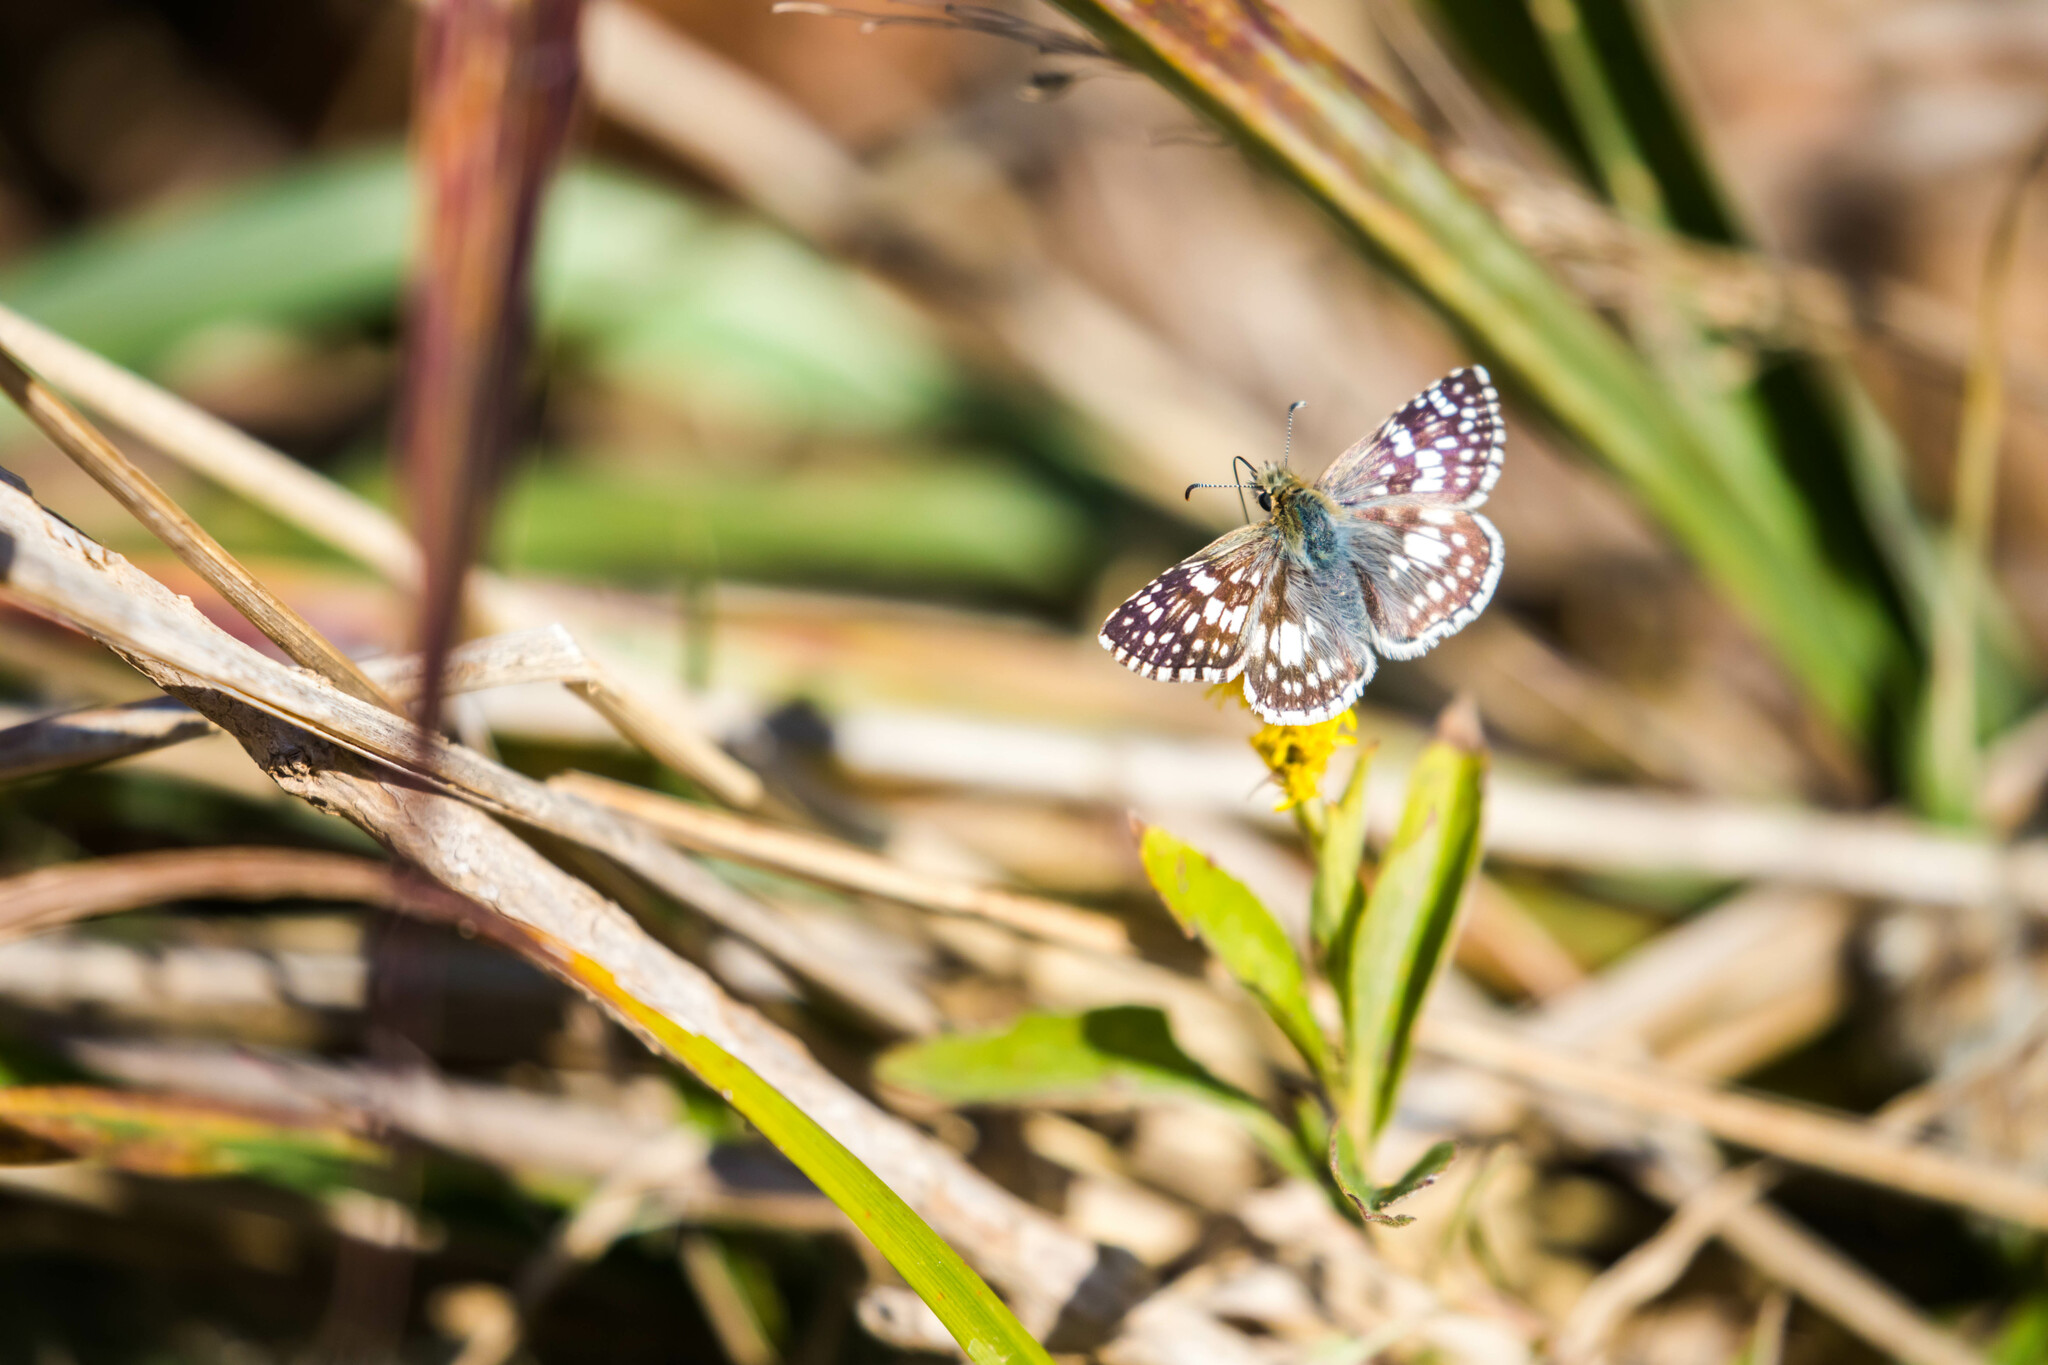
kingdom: Animalia
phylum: Arthropoda
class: Insecta
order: Lepidoptera
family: Hesperiidae
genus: Burnsius
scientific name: Burnsius communis
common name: Common checkered-skipper
